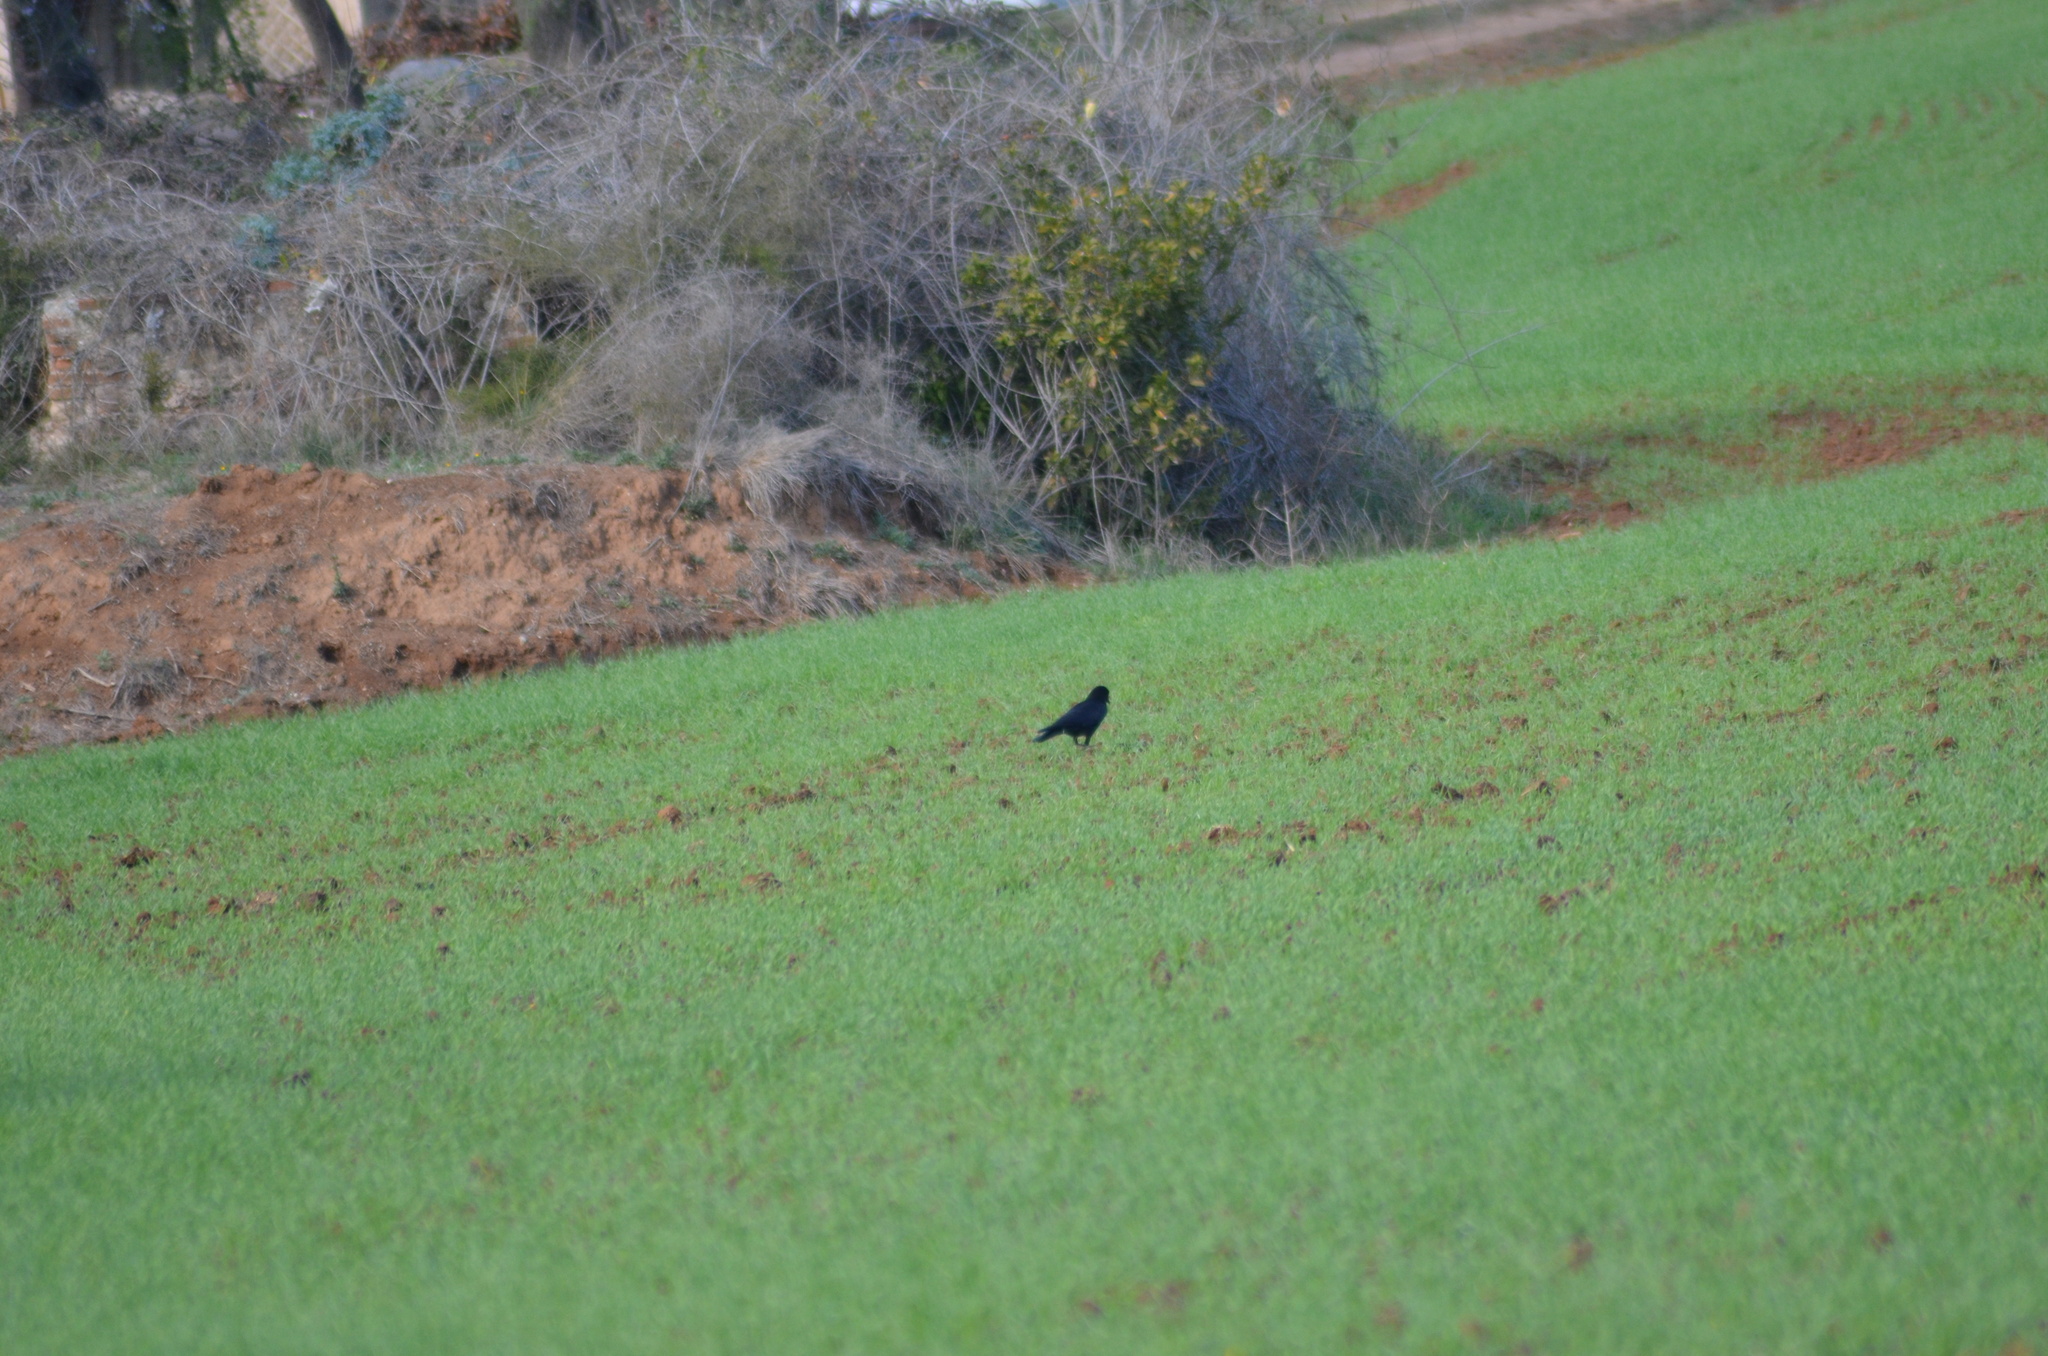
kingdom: Animalia
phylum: Chordata
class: Aves
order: Passeriformes
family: Corvidae
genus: Corvus
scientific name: Corvus corone
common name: Carrion crow
